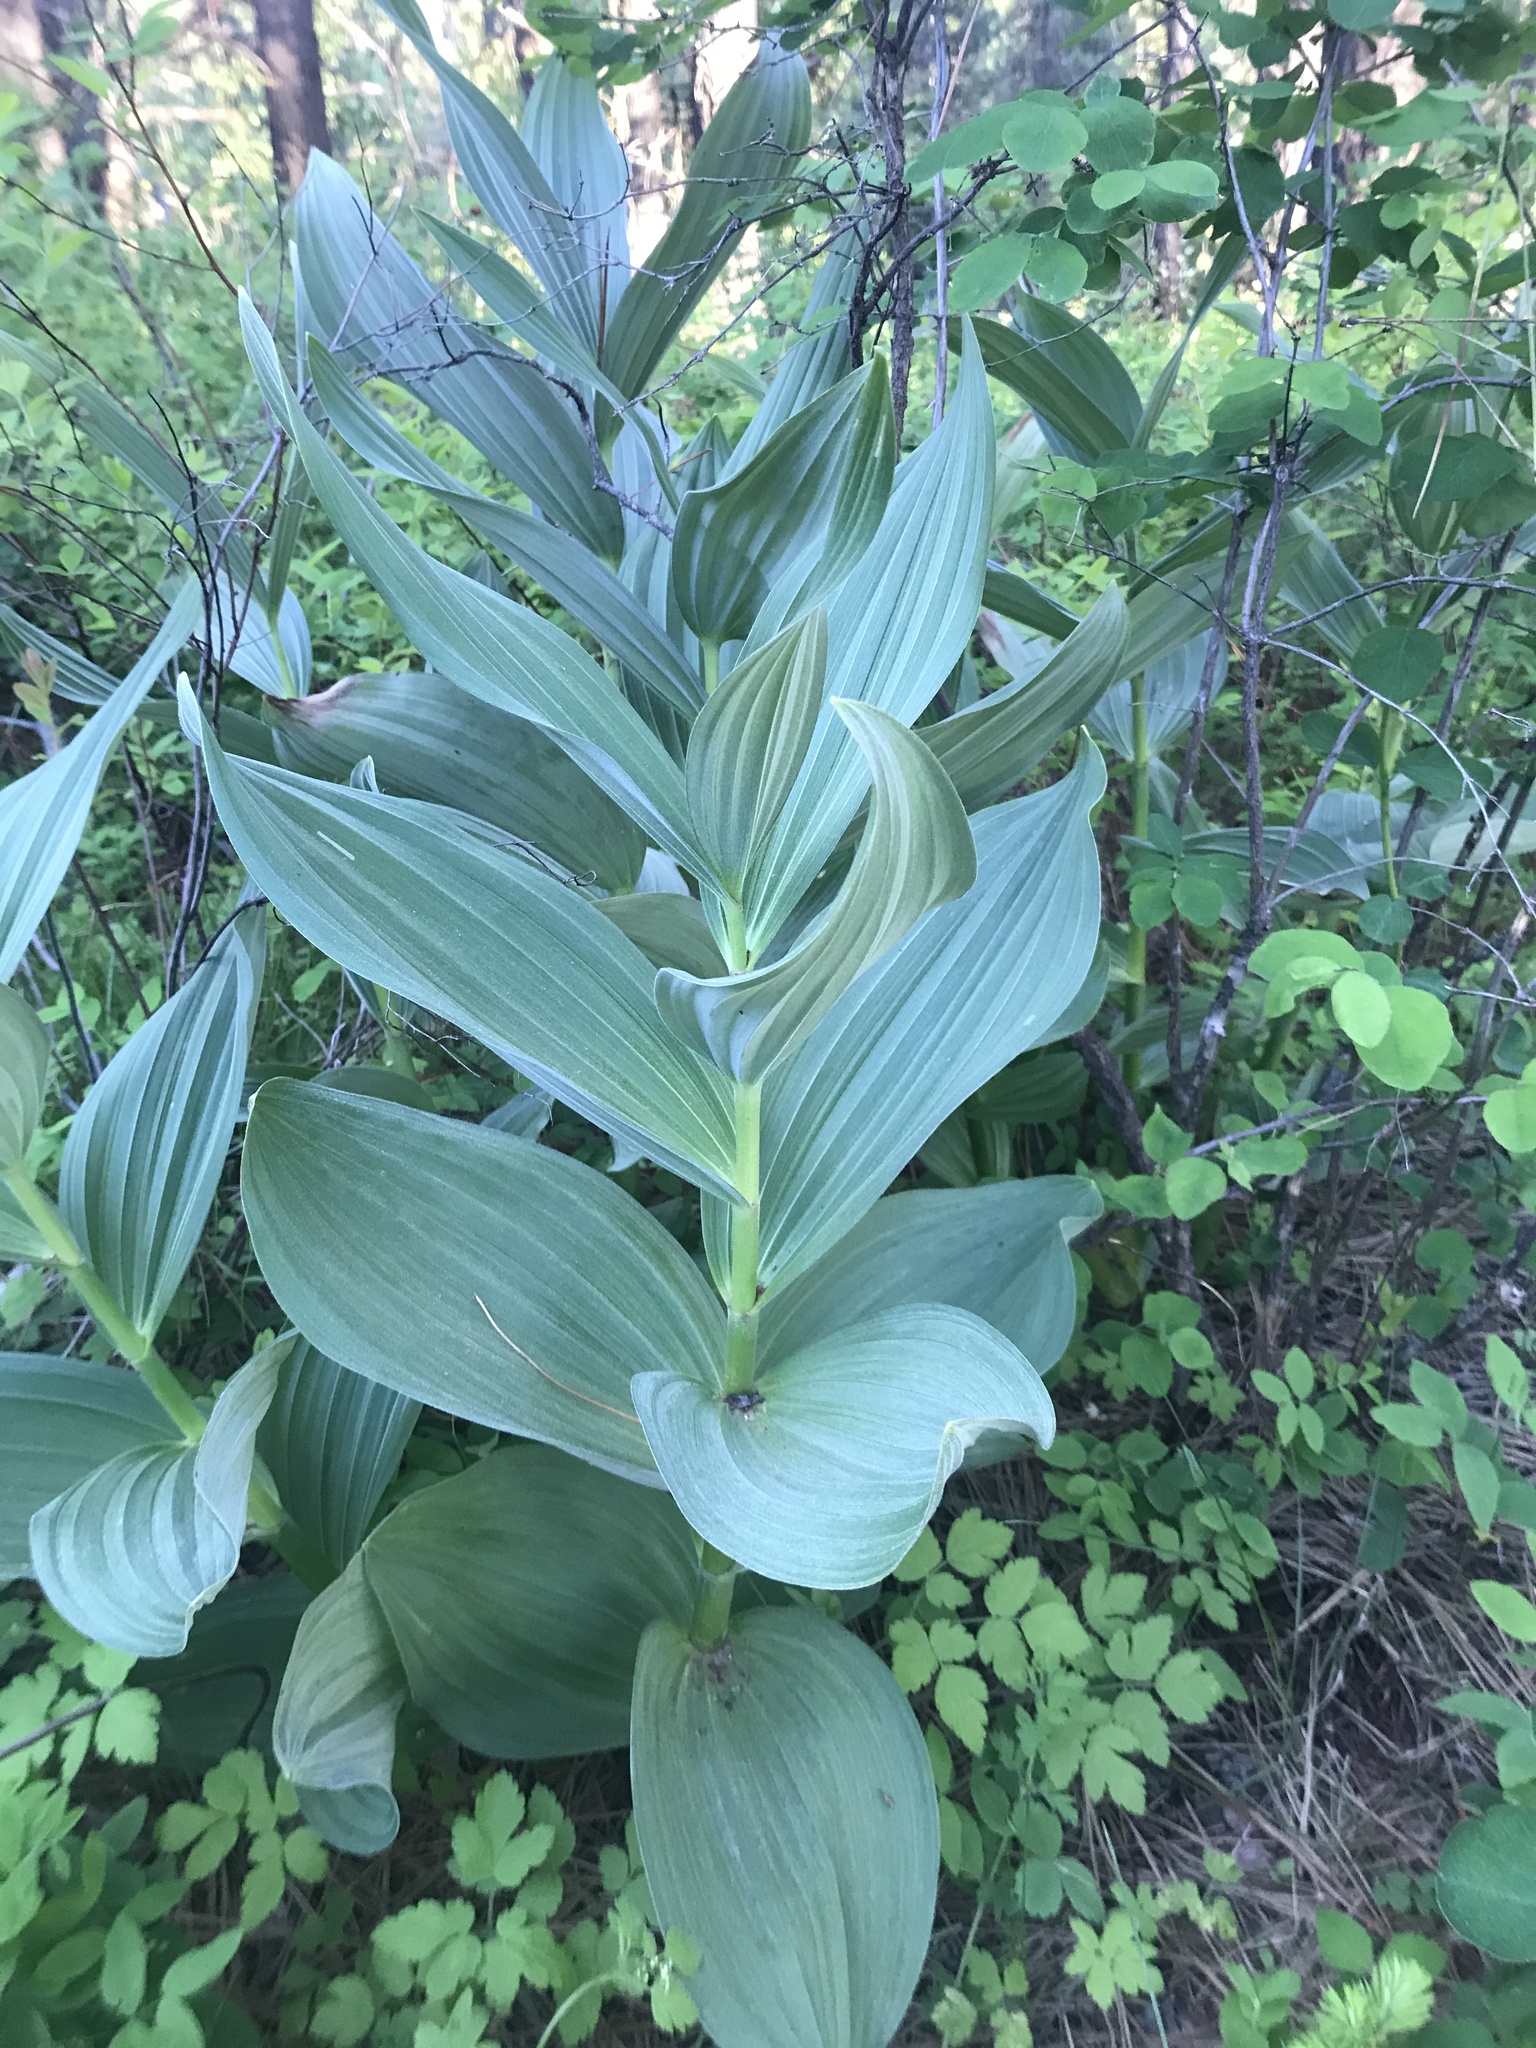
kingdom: Plantae
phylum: Tracheophyta
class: Liliopsida
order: Liliales
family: Melanthiaceae
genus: Veratrum
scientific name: Veratrum californicum
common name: California veratrum
